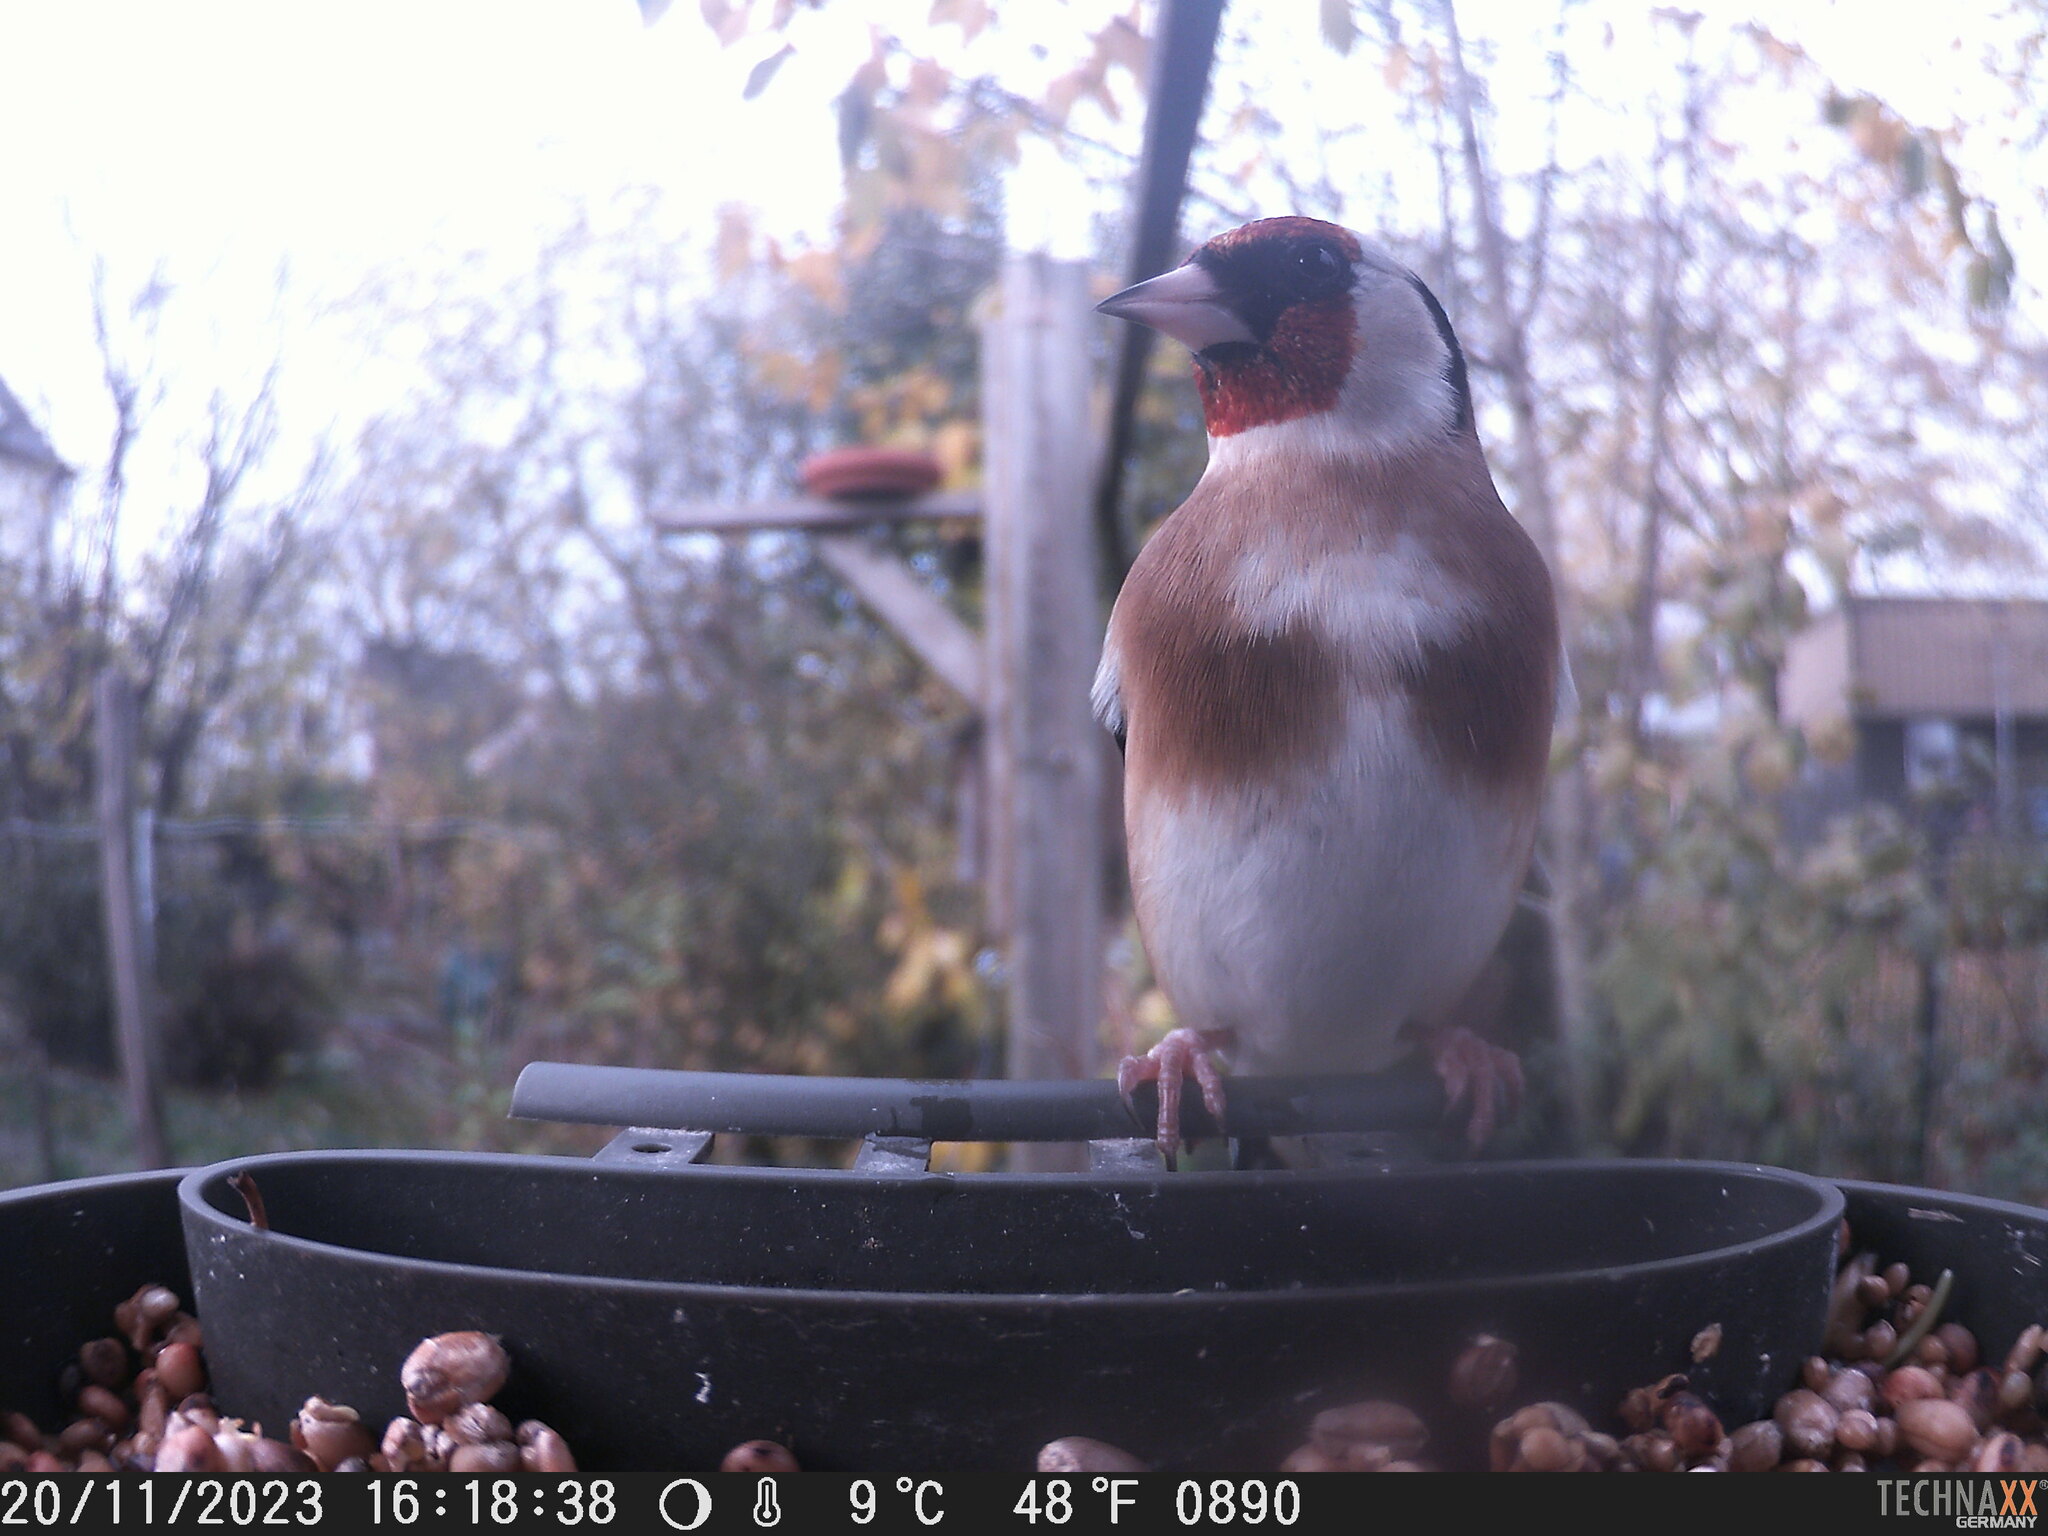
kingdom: Animalia
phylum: Chordata
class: Aves
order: Passeriformes
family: Fringillidae
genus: Carduelis
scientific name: Carduelis carduelis
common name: European goldfinch
